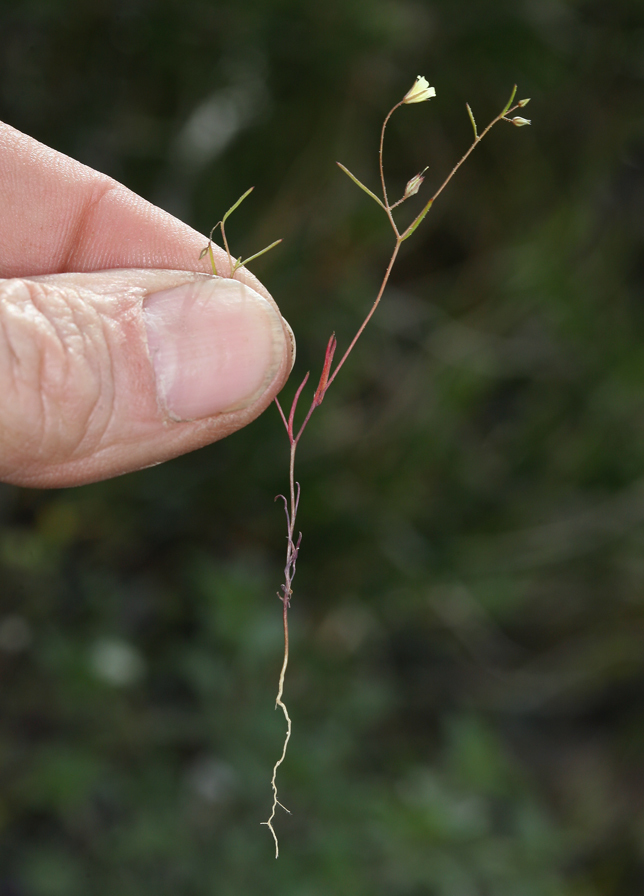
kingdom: Plantae
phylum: Tracheophyta
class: Magnoliopsida
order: Ericales
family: Polemoniaceae
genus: Linanthus
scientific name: Linanthus filiformis
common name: Yellow gilia
